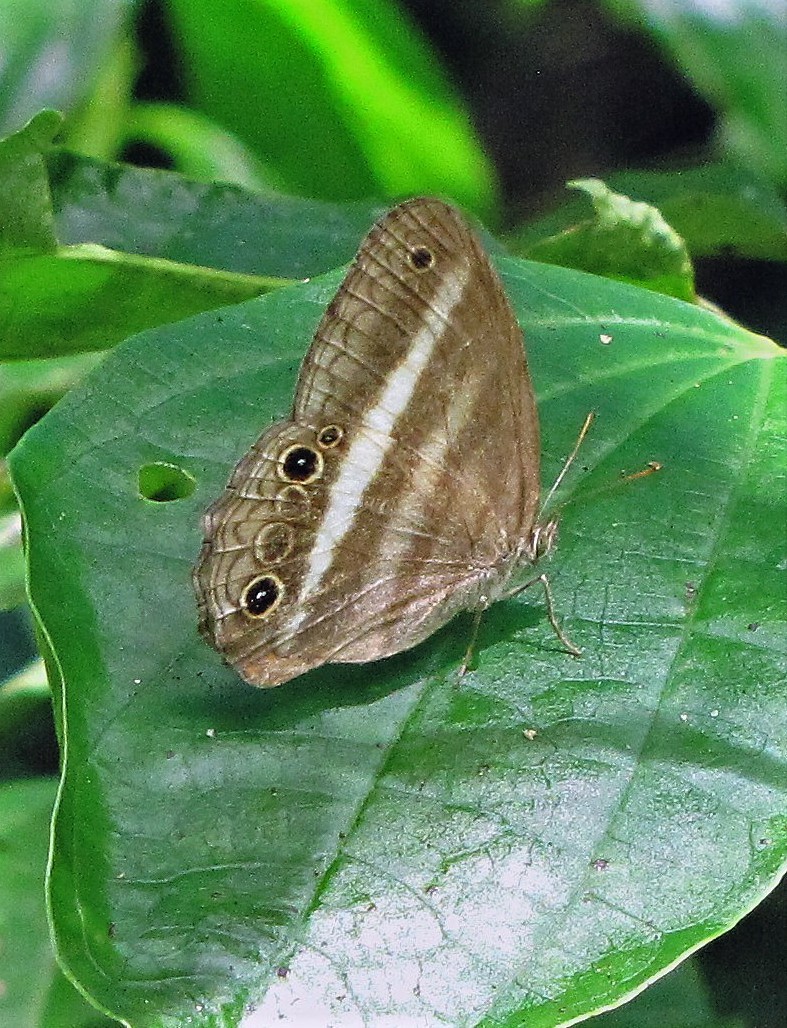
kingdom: Animalia
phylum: Arthropoda
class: Insecta
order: Lepidoptera
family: Nymphalidae
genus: Pareuptychia
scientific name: Pareuptychia summandosa
